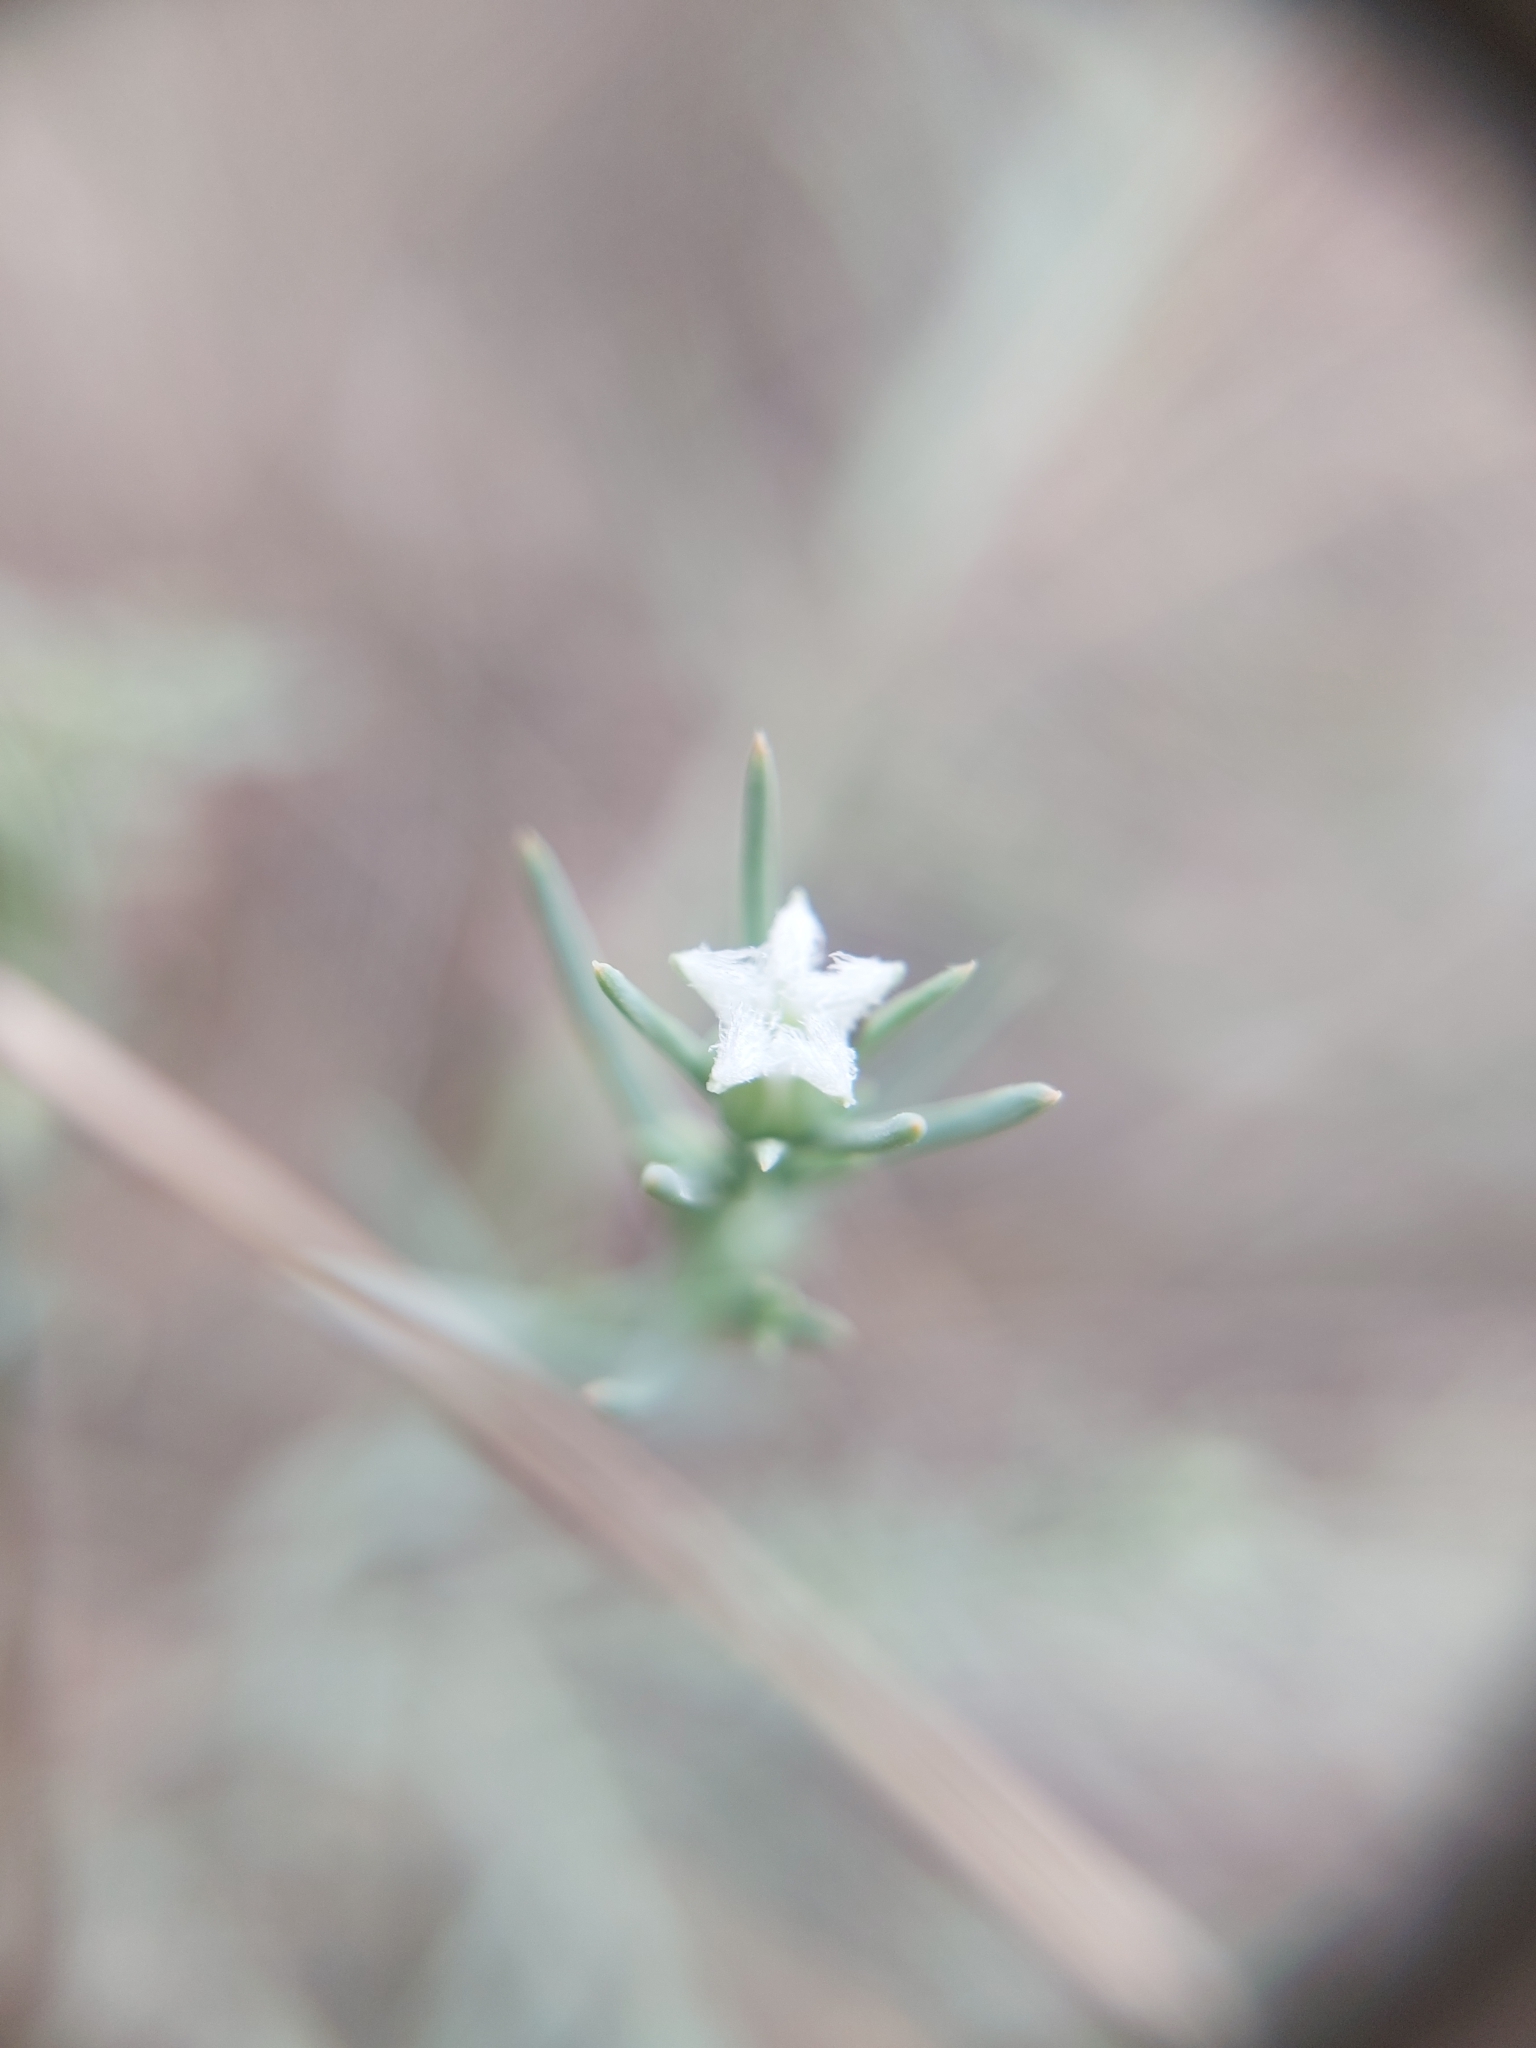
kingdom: Plantae
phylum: Tracheophyta
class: Magnoliopsida
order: Santalales
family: Thesiaceae
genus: Thesium
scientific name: Thesium celatum
